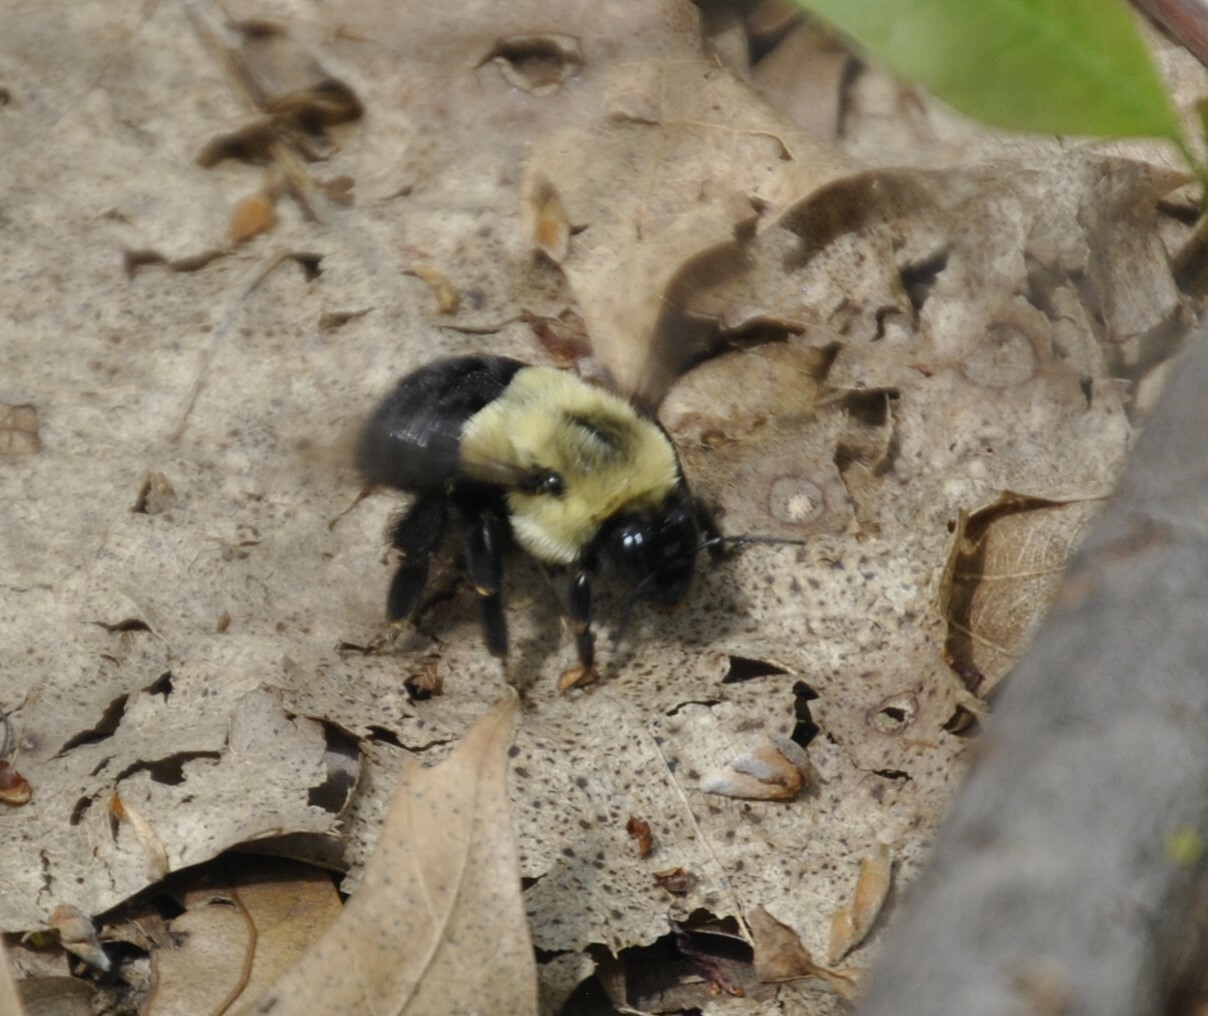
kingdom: Animalia
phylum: Arthropoda
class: Insecta
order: Hymenoptera
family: Apidae
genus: Bombus
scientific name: Bombus impatiens
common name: Common eastern bumble bee
